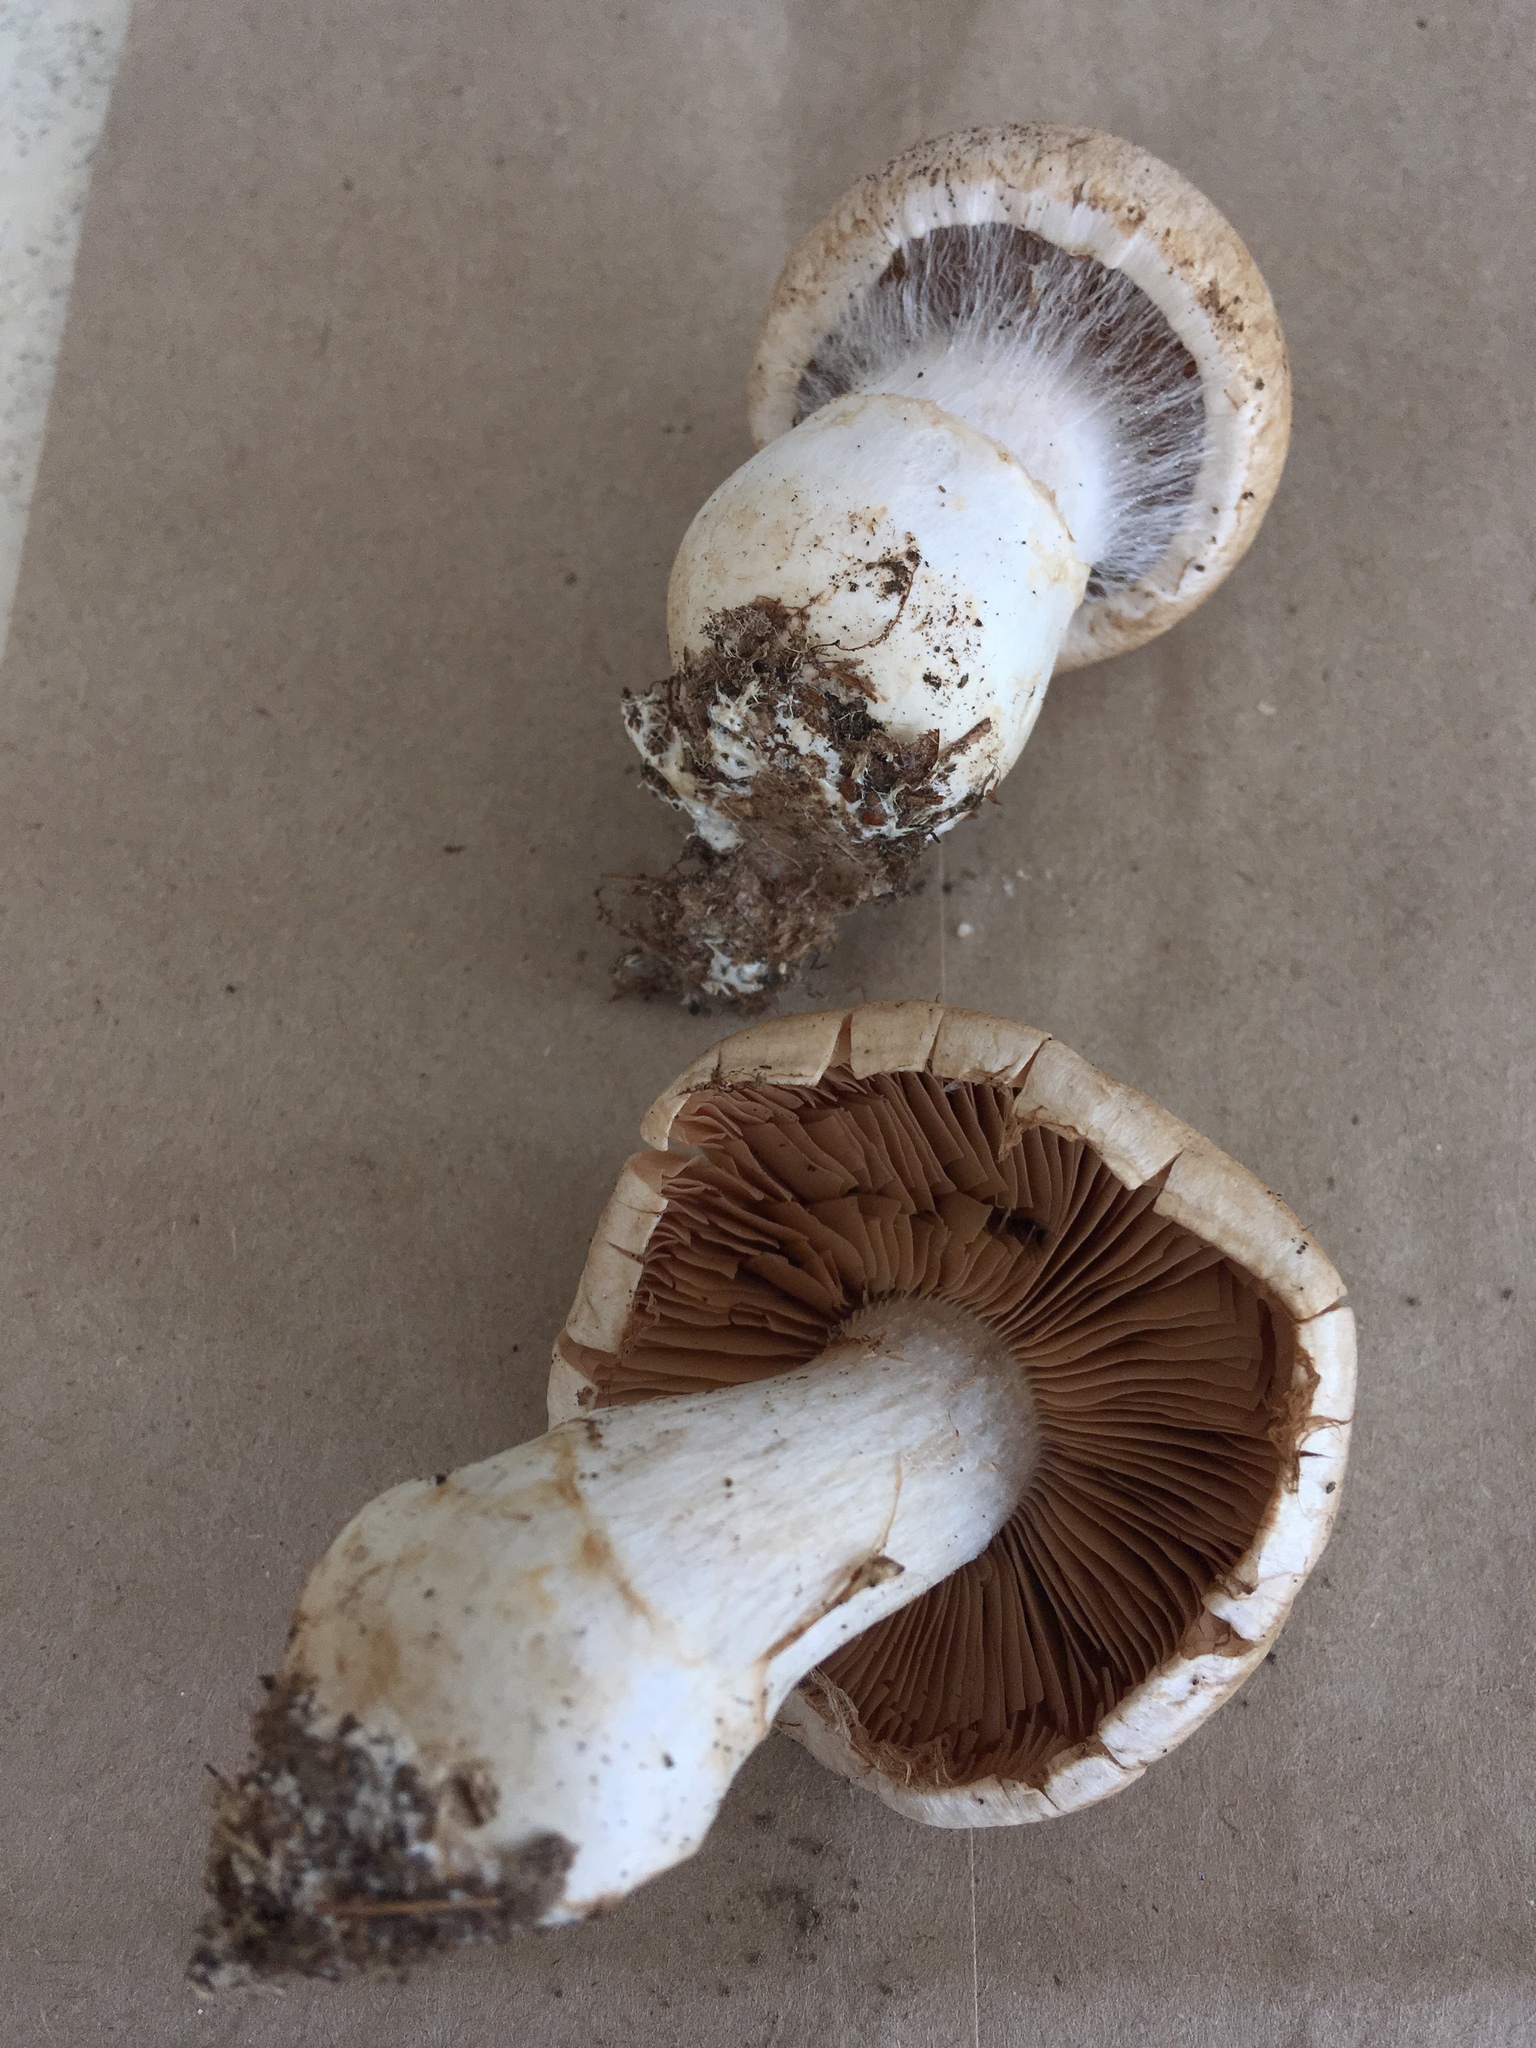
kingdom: Fungi
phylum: Basidiomycota
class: Agaricomycetes
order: Agaricales
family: Cortinariaceae
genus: Cortinarius
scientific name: Cortinarius firmus
